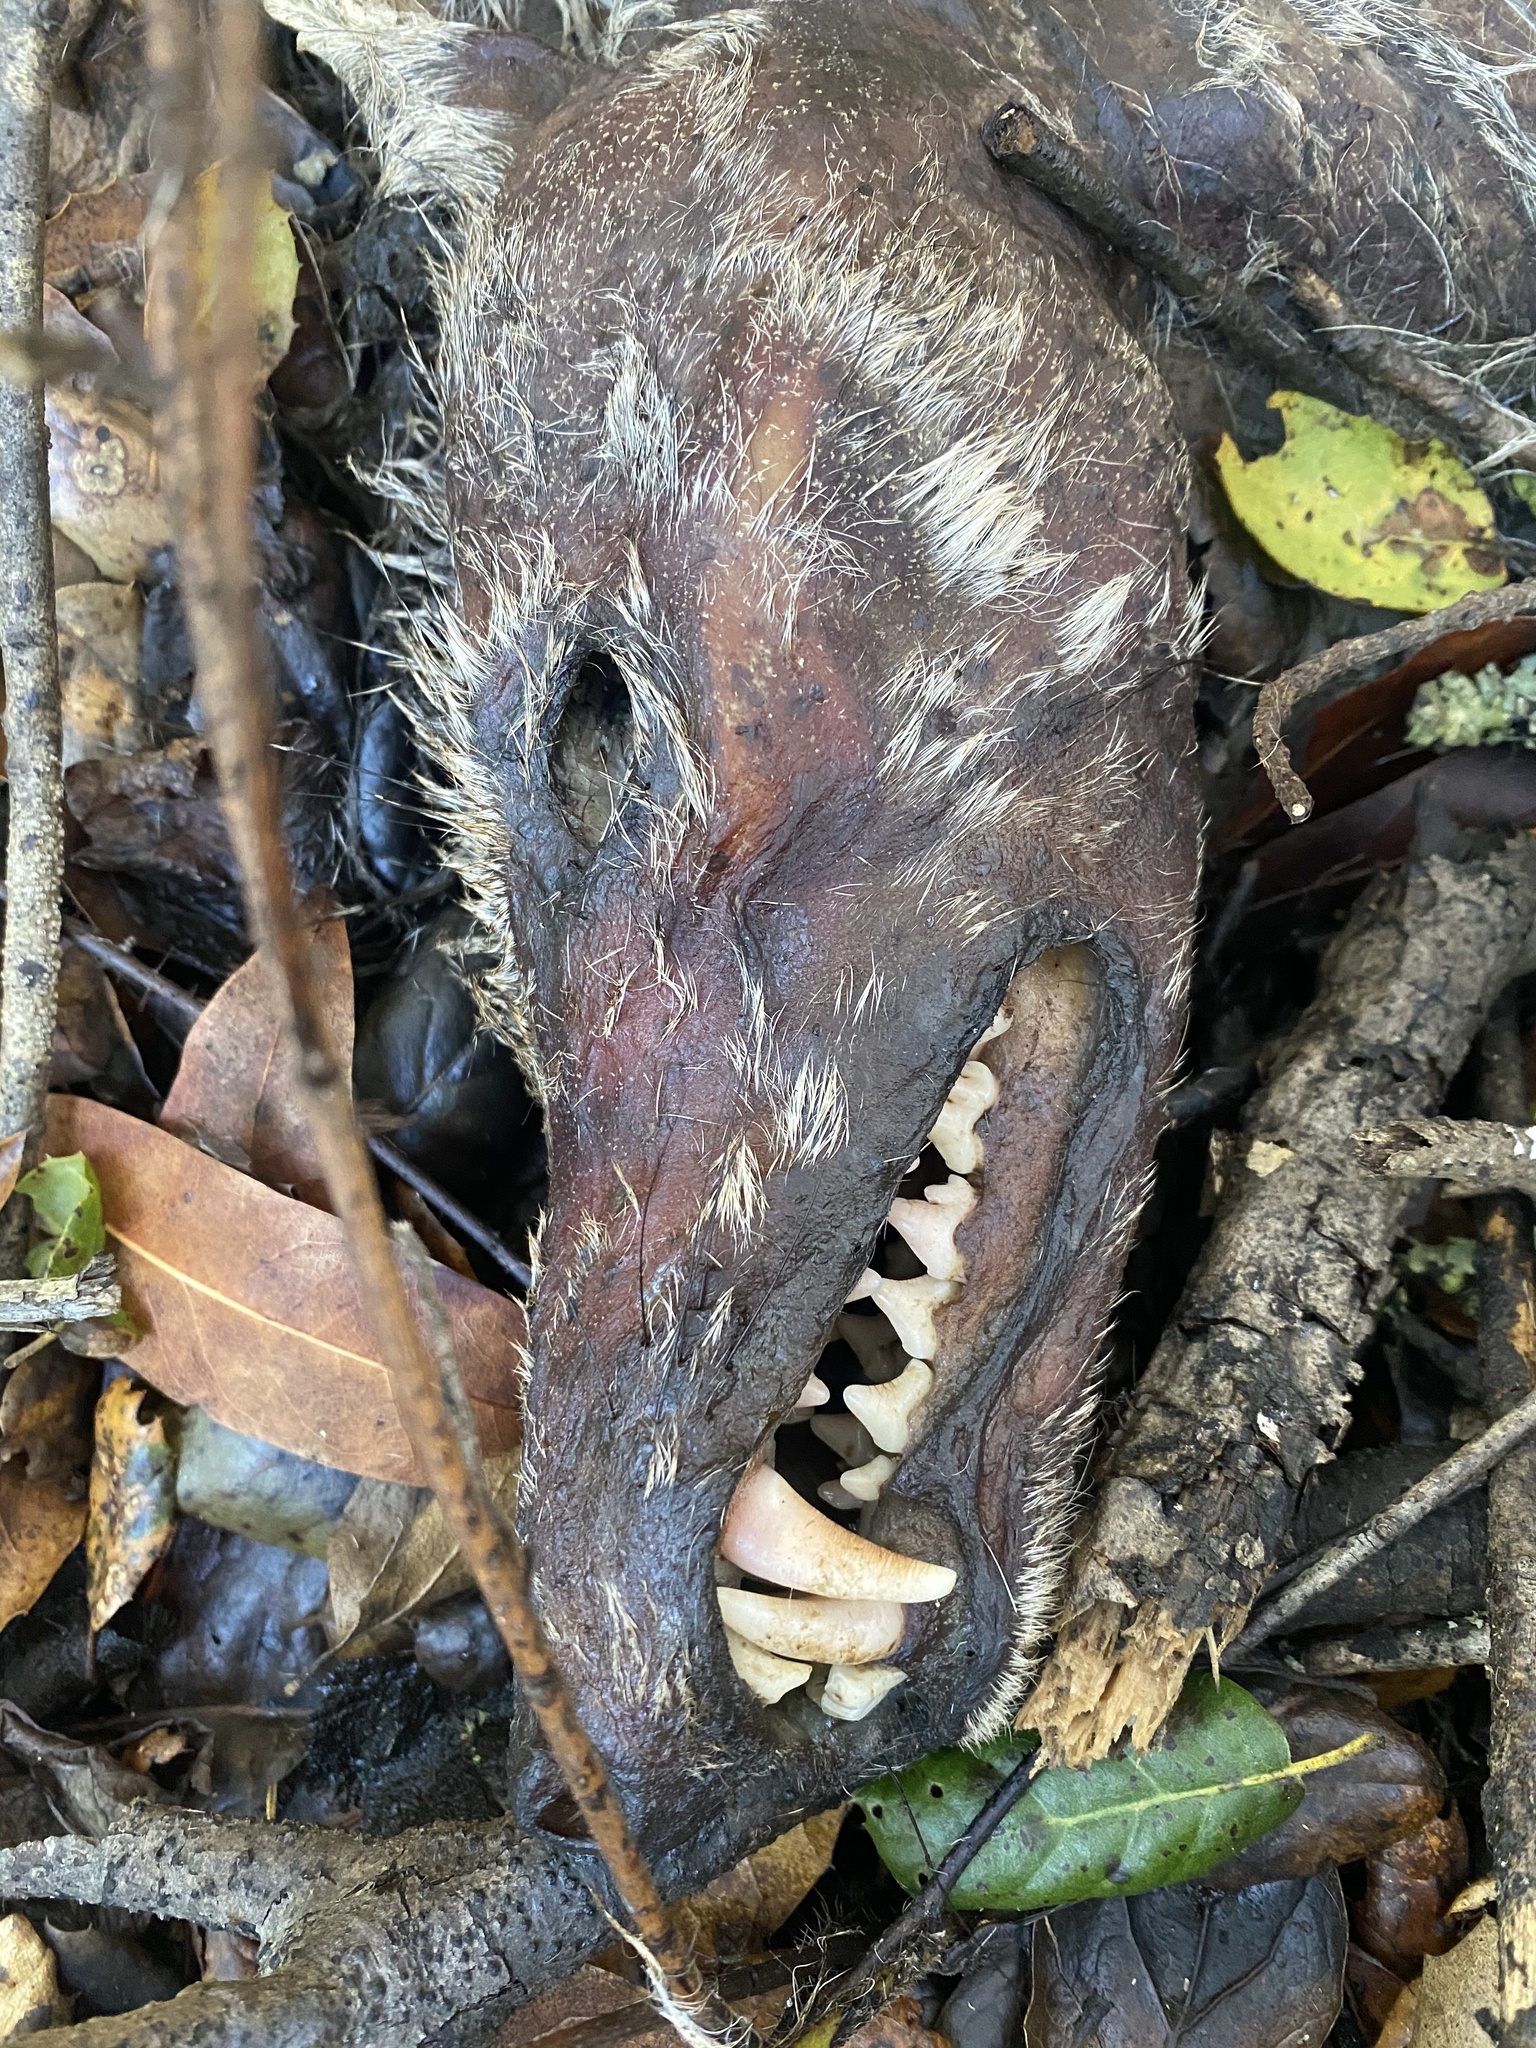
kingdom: Animalia
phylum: Chordata
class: Mammalia
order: Carnivora
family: Canidae
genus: Canis
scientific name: Canis latrans
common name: Coyote
